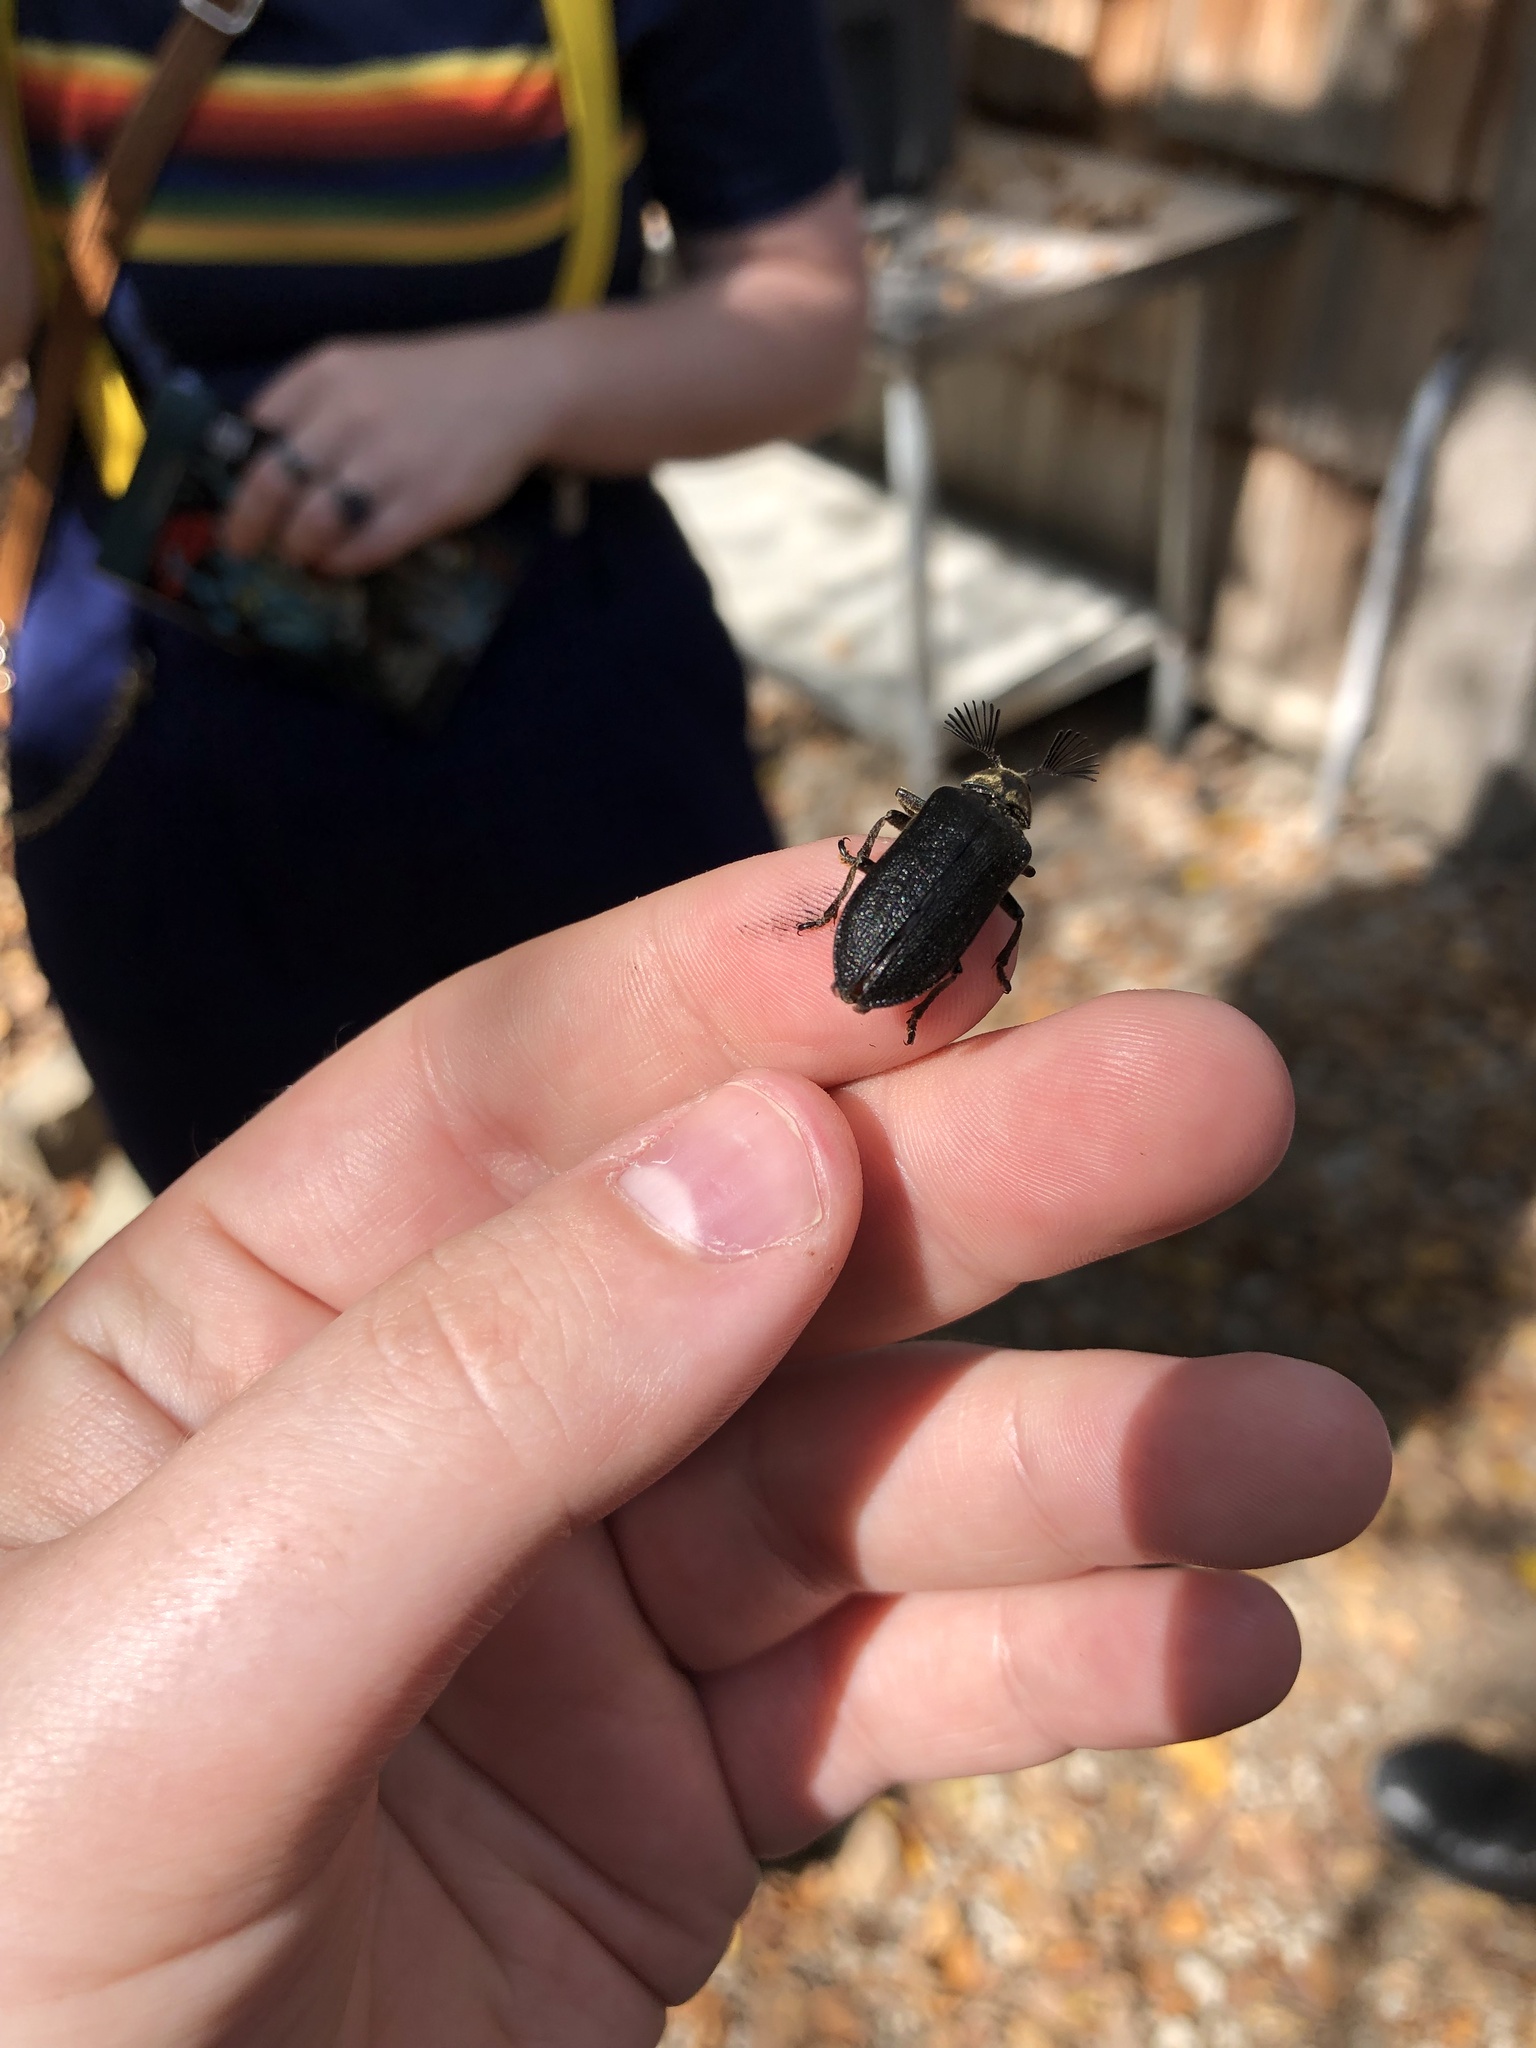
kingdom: Animalia
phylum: Arthropoda
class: Insecta
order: Coleoptera
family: Rhipiceridae
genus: Sandalus
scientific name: Sandalus niger
